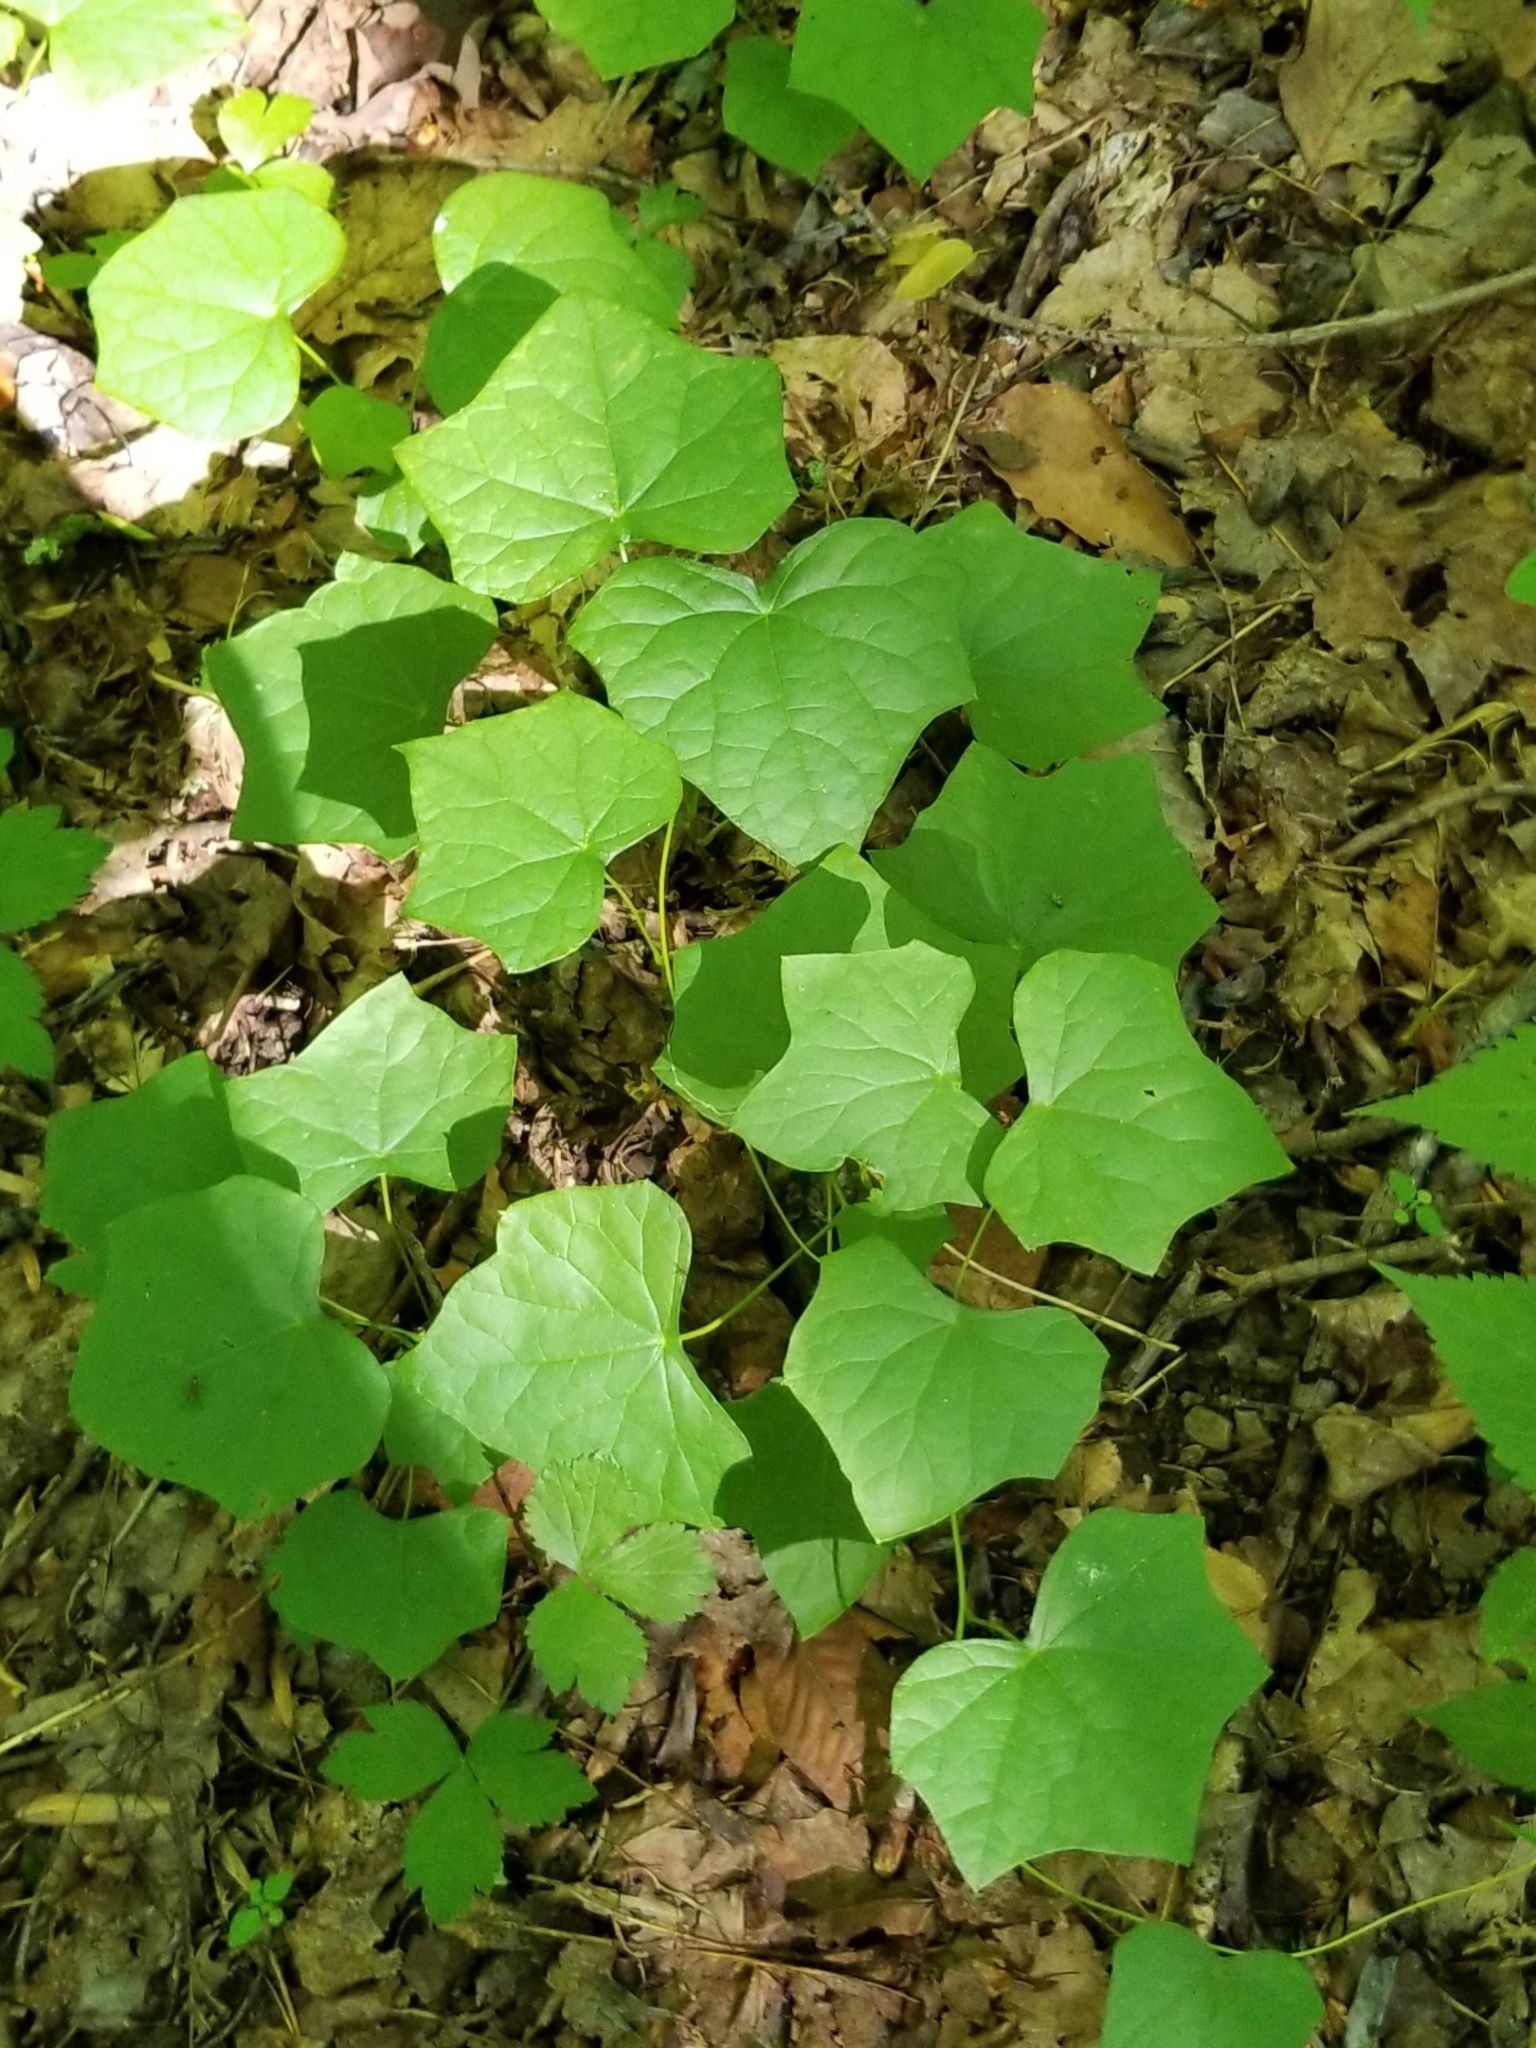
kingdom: Plantae
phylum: Tracheophyta
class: Magnoliopsida
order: Ranunculales
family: Menispermaceae
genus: Menispermum
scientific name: Menispermum canadense
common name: Moonseed
